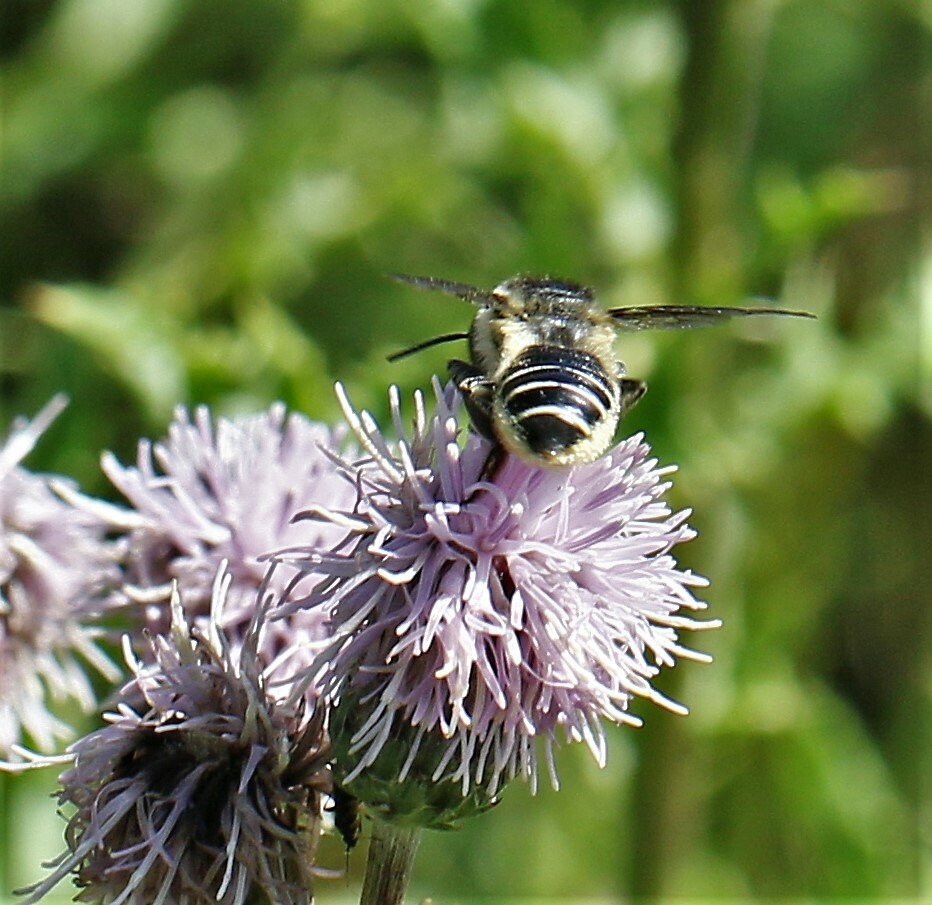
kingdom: Animalia
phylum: Arthropoda
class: Insecta
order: Hymenoptera
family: Megachilidae
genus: Megachile
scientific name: Megachile inermis
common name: Unarmed leafcutter bee
